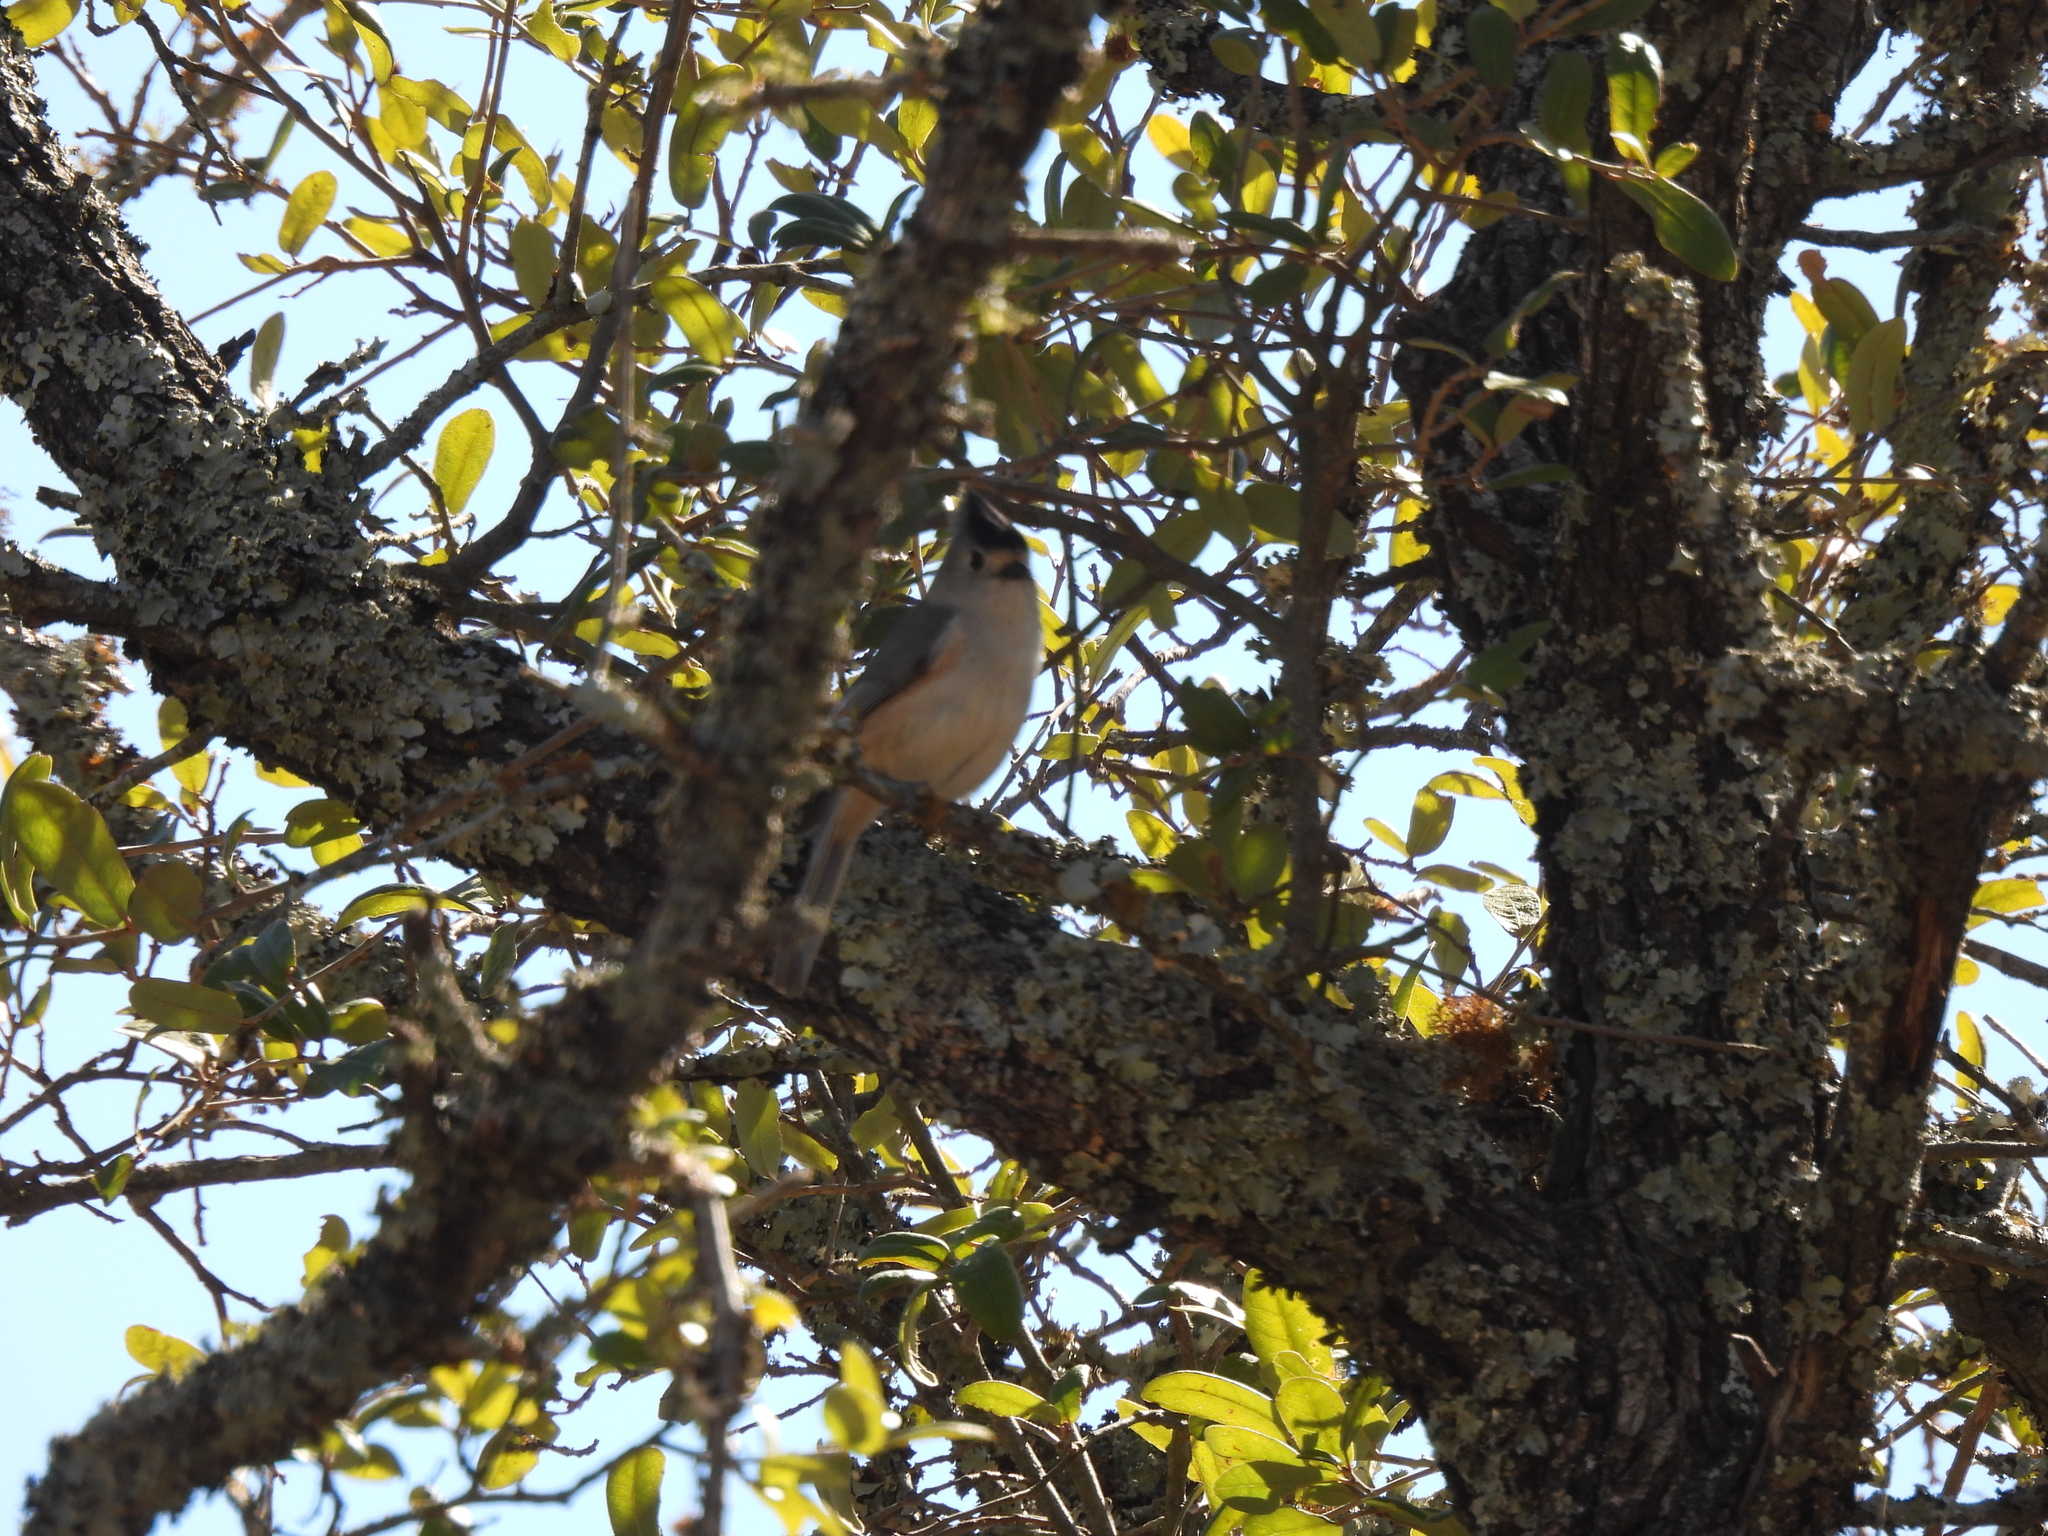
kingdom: Animalia
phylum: Chordata
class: Aves
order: Passeriformes
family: Paridae
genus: Baeolophus
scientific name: Baeolophus atricristatus
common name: Black-crested titmouse
